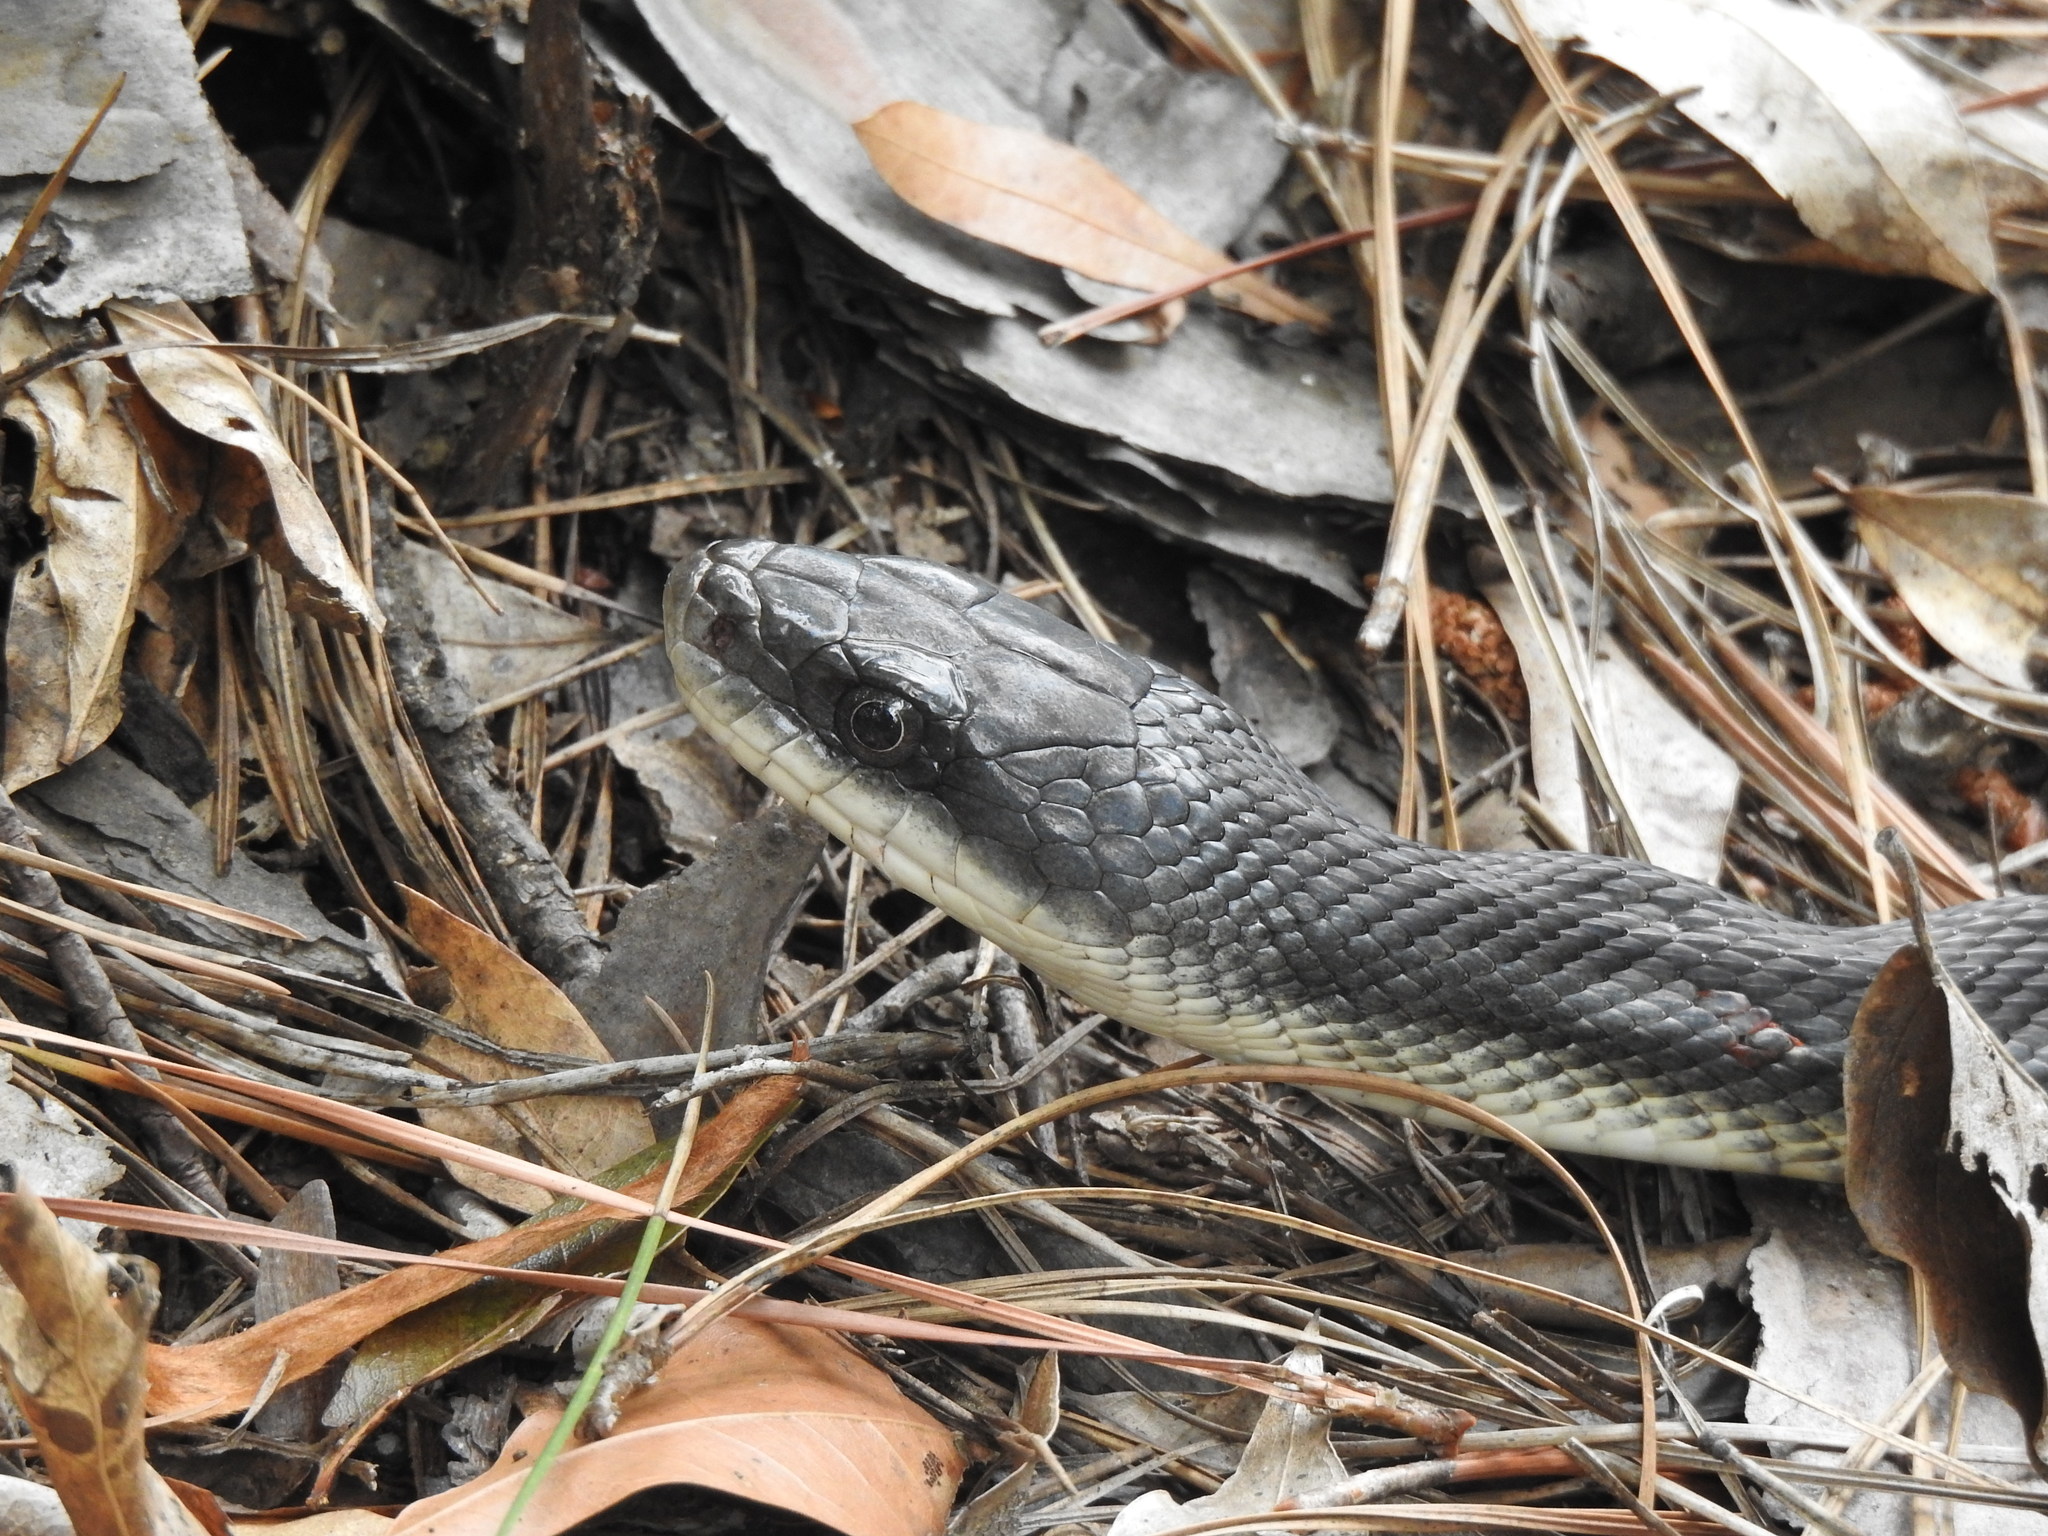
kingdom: Animalia
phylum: Chordata
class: Squamata
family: Colubridae
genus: Pantherophis
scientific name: Pantherophis obsoletus
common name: Black rat snake
